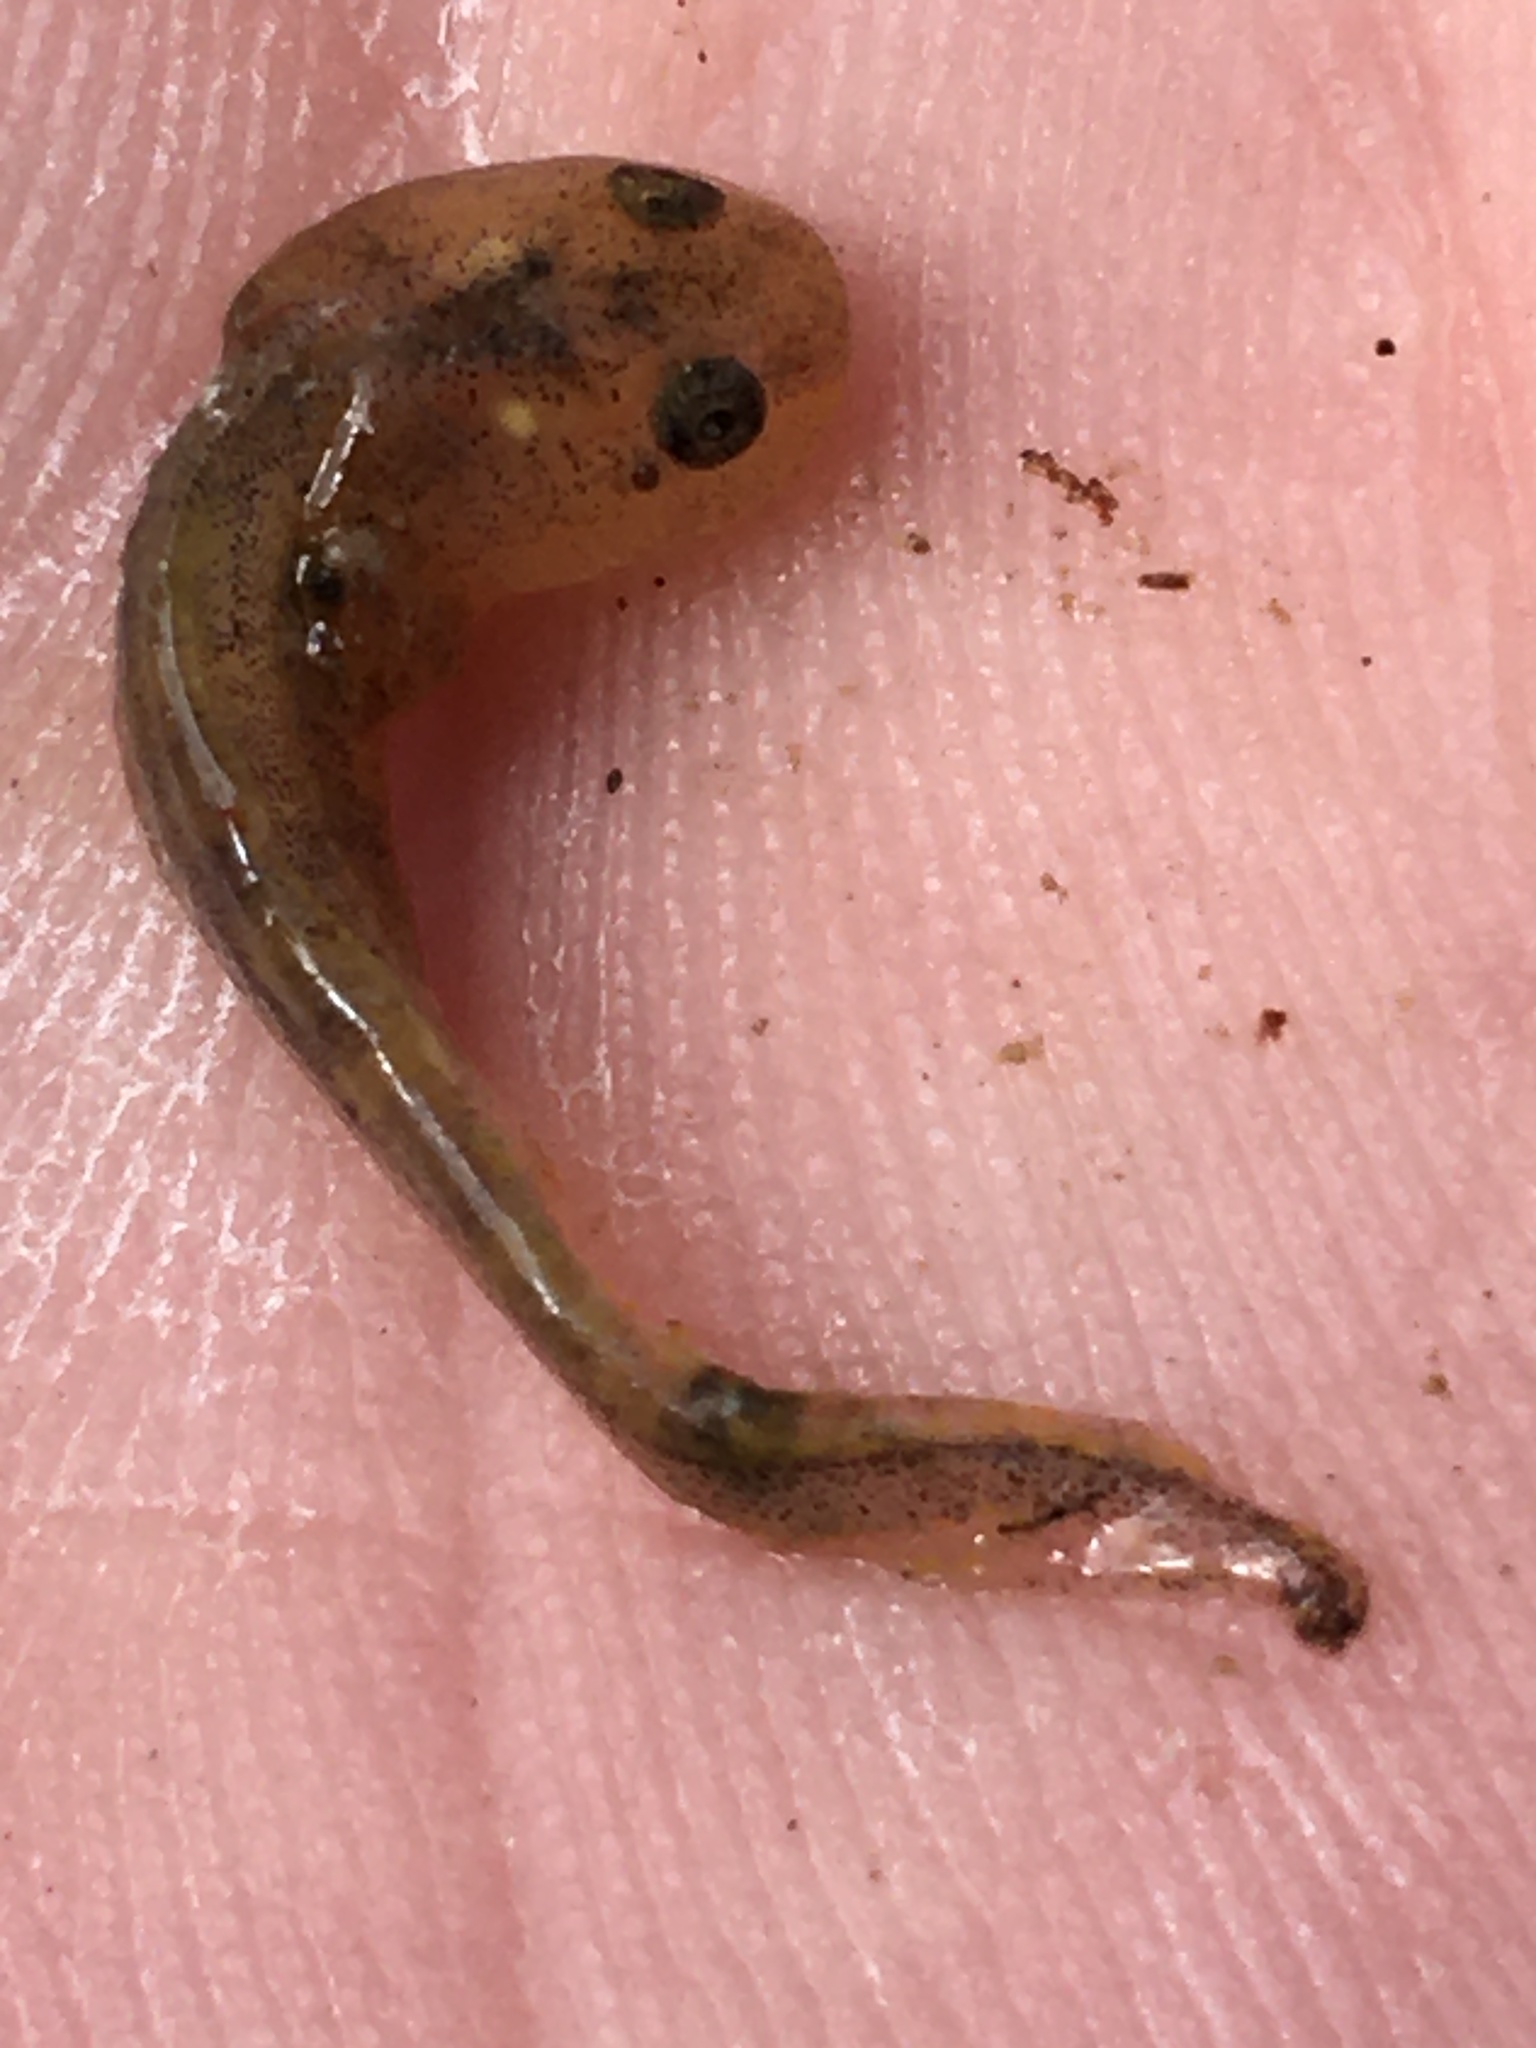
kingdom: Animalia
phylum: Chordata
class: Amphibia
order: Caudata
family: Ambystomatidae
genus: Ambystoma
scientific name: Ambystoma
